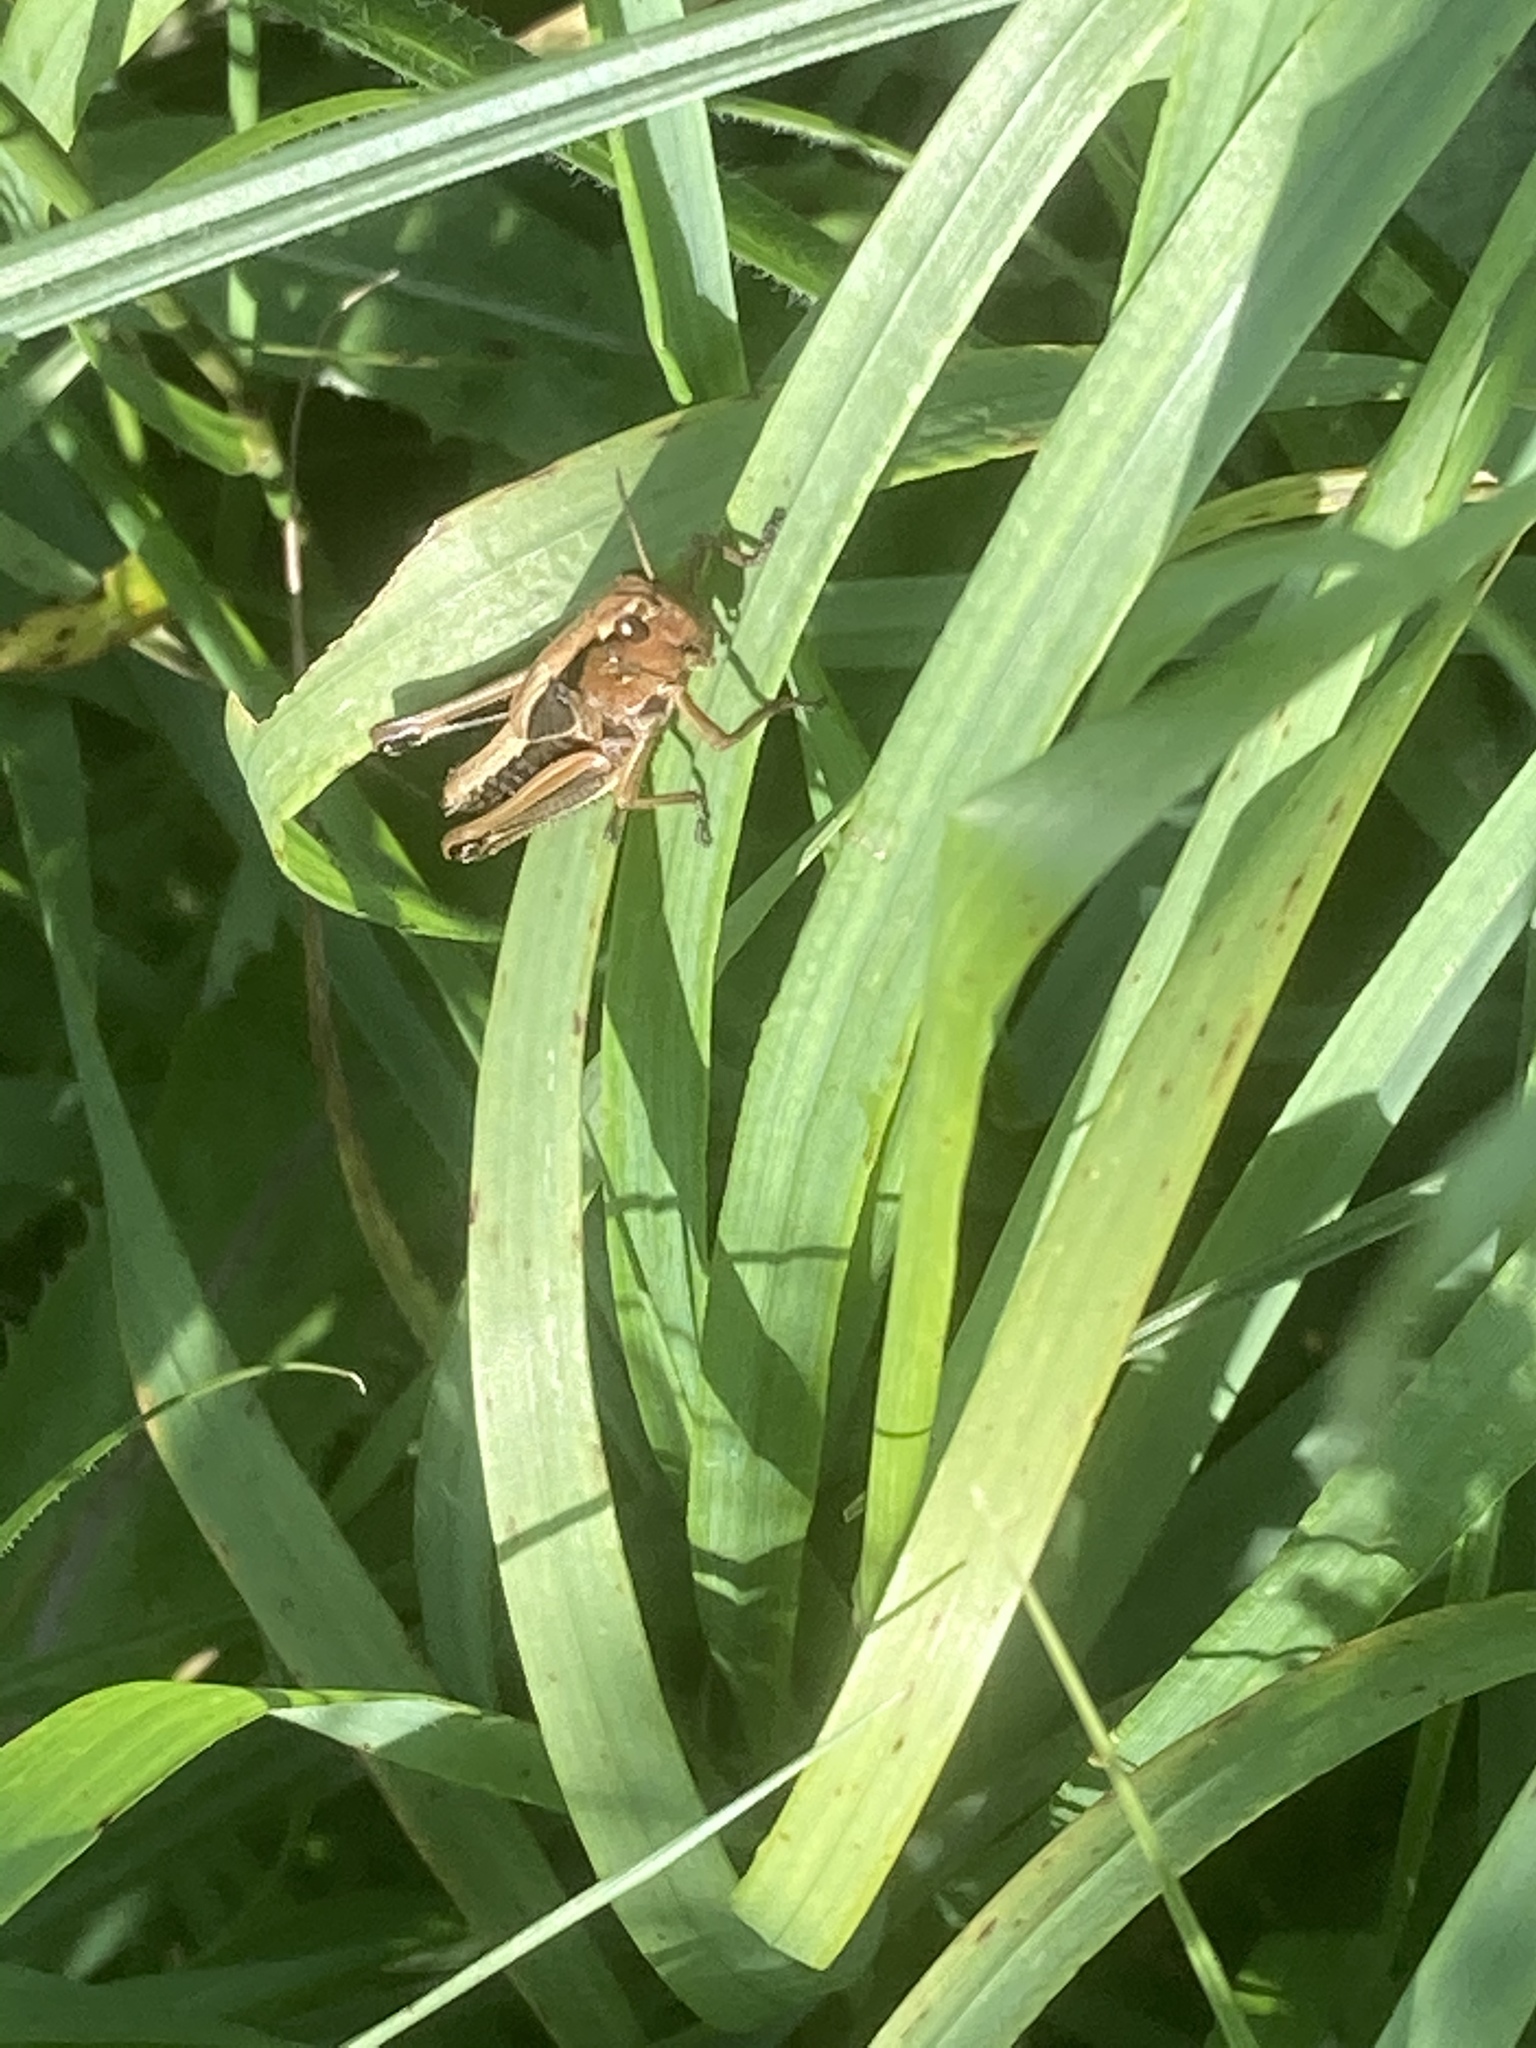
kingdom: Animalia
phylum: Arthropoda
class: Insecta
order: Orthoptera
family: Acrididae
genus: Stethophyma
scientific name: Stethophyma grossum
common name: Large marsh grasshopper
